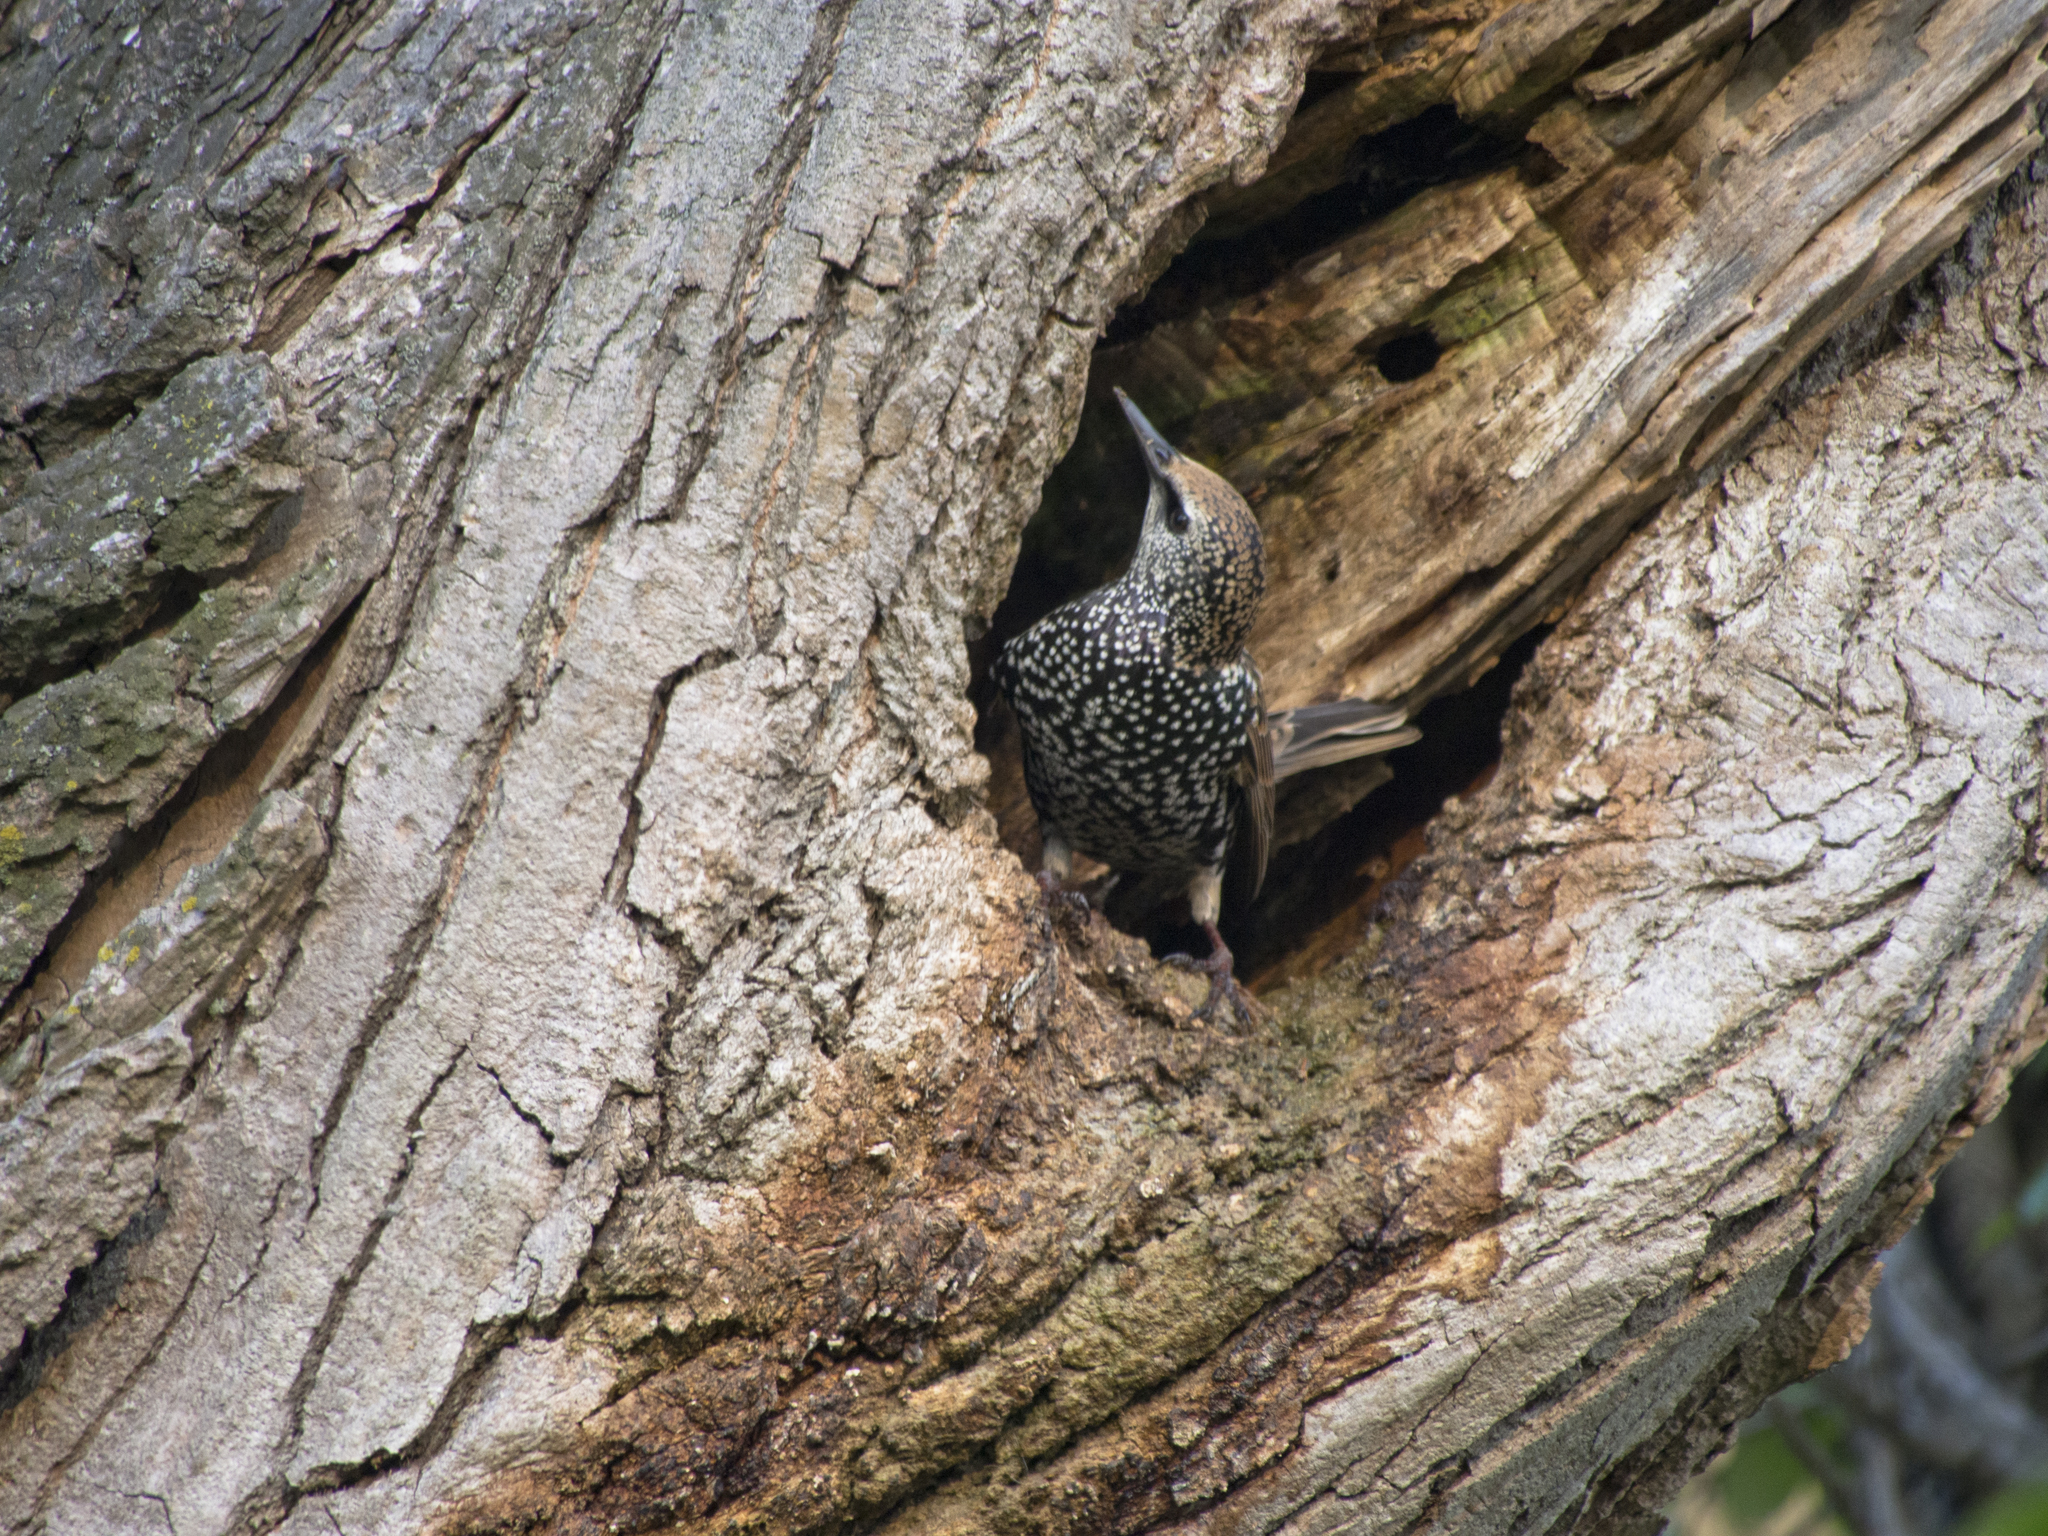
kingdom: Animalia
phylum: Chordata
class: Aves
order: Passeriformes
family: Sturnidae
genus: Sturnus
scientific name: Sturnus vulgaris
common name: Common starling
